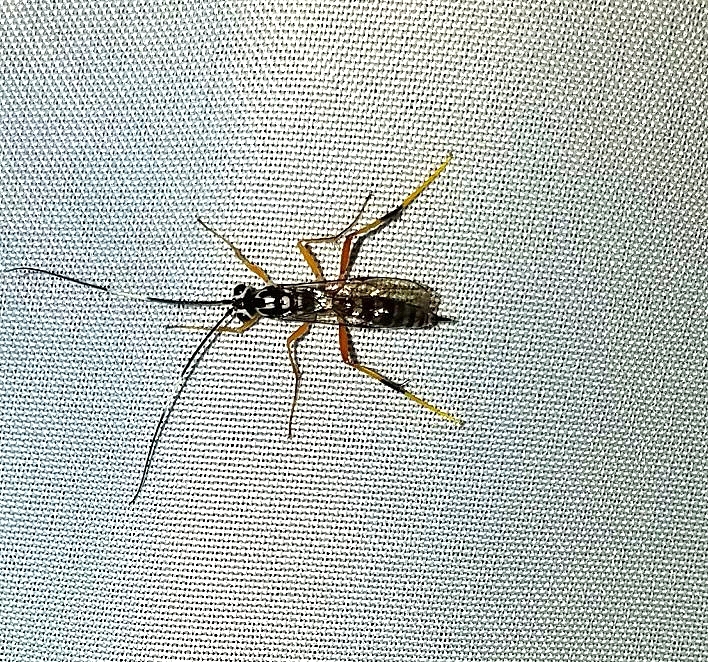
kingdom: Animalia
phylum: Arthropoda
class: Insecta
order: Hymenoptera
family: Ichneumonidae
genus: Diradops
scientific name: Diradops bethunei
